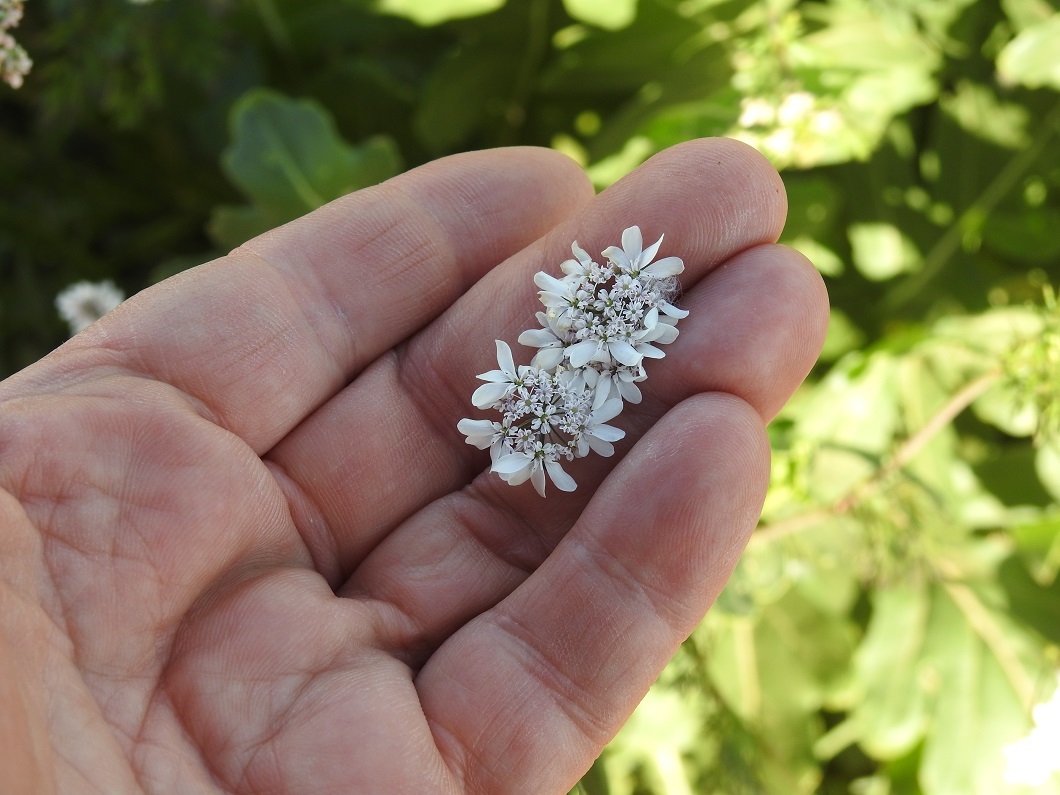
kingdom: Plantae
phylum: Tracheophyta
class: Magnoliopsida
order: Apiales
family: Apiaceae
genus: Coriandrum
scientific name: Coriandrum sativum
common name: Coriander
